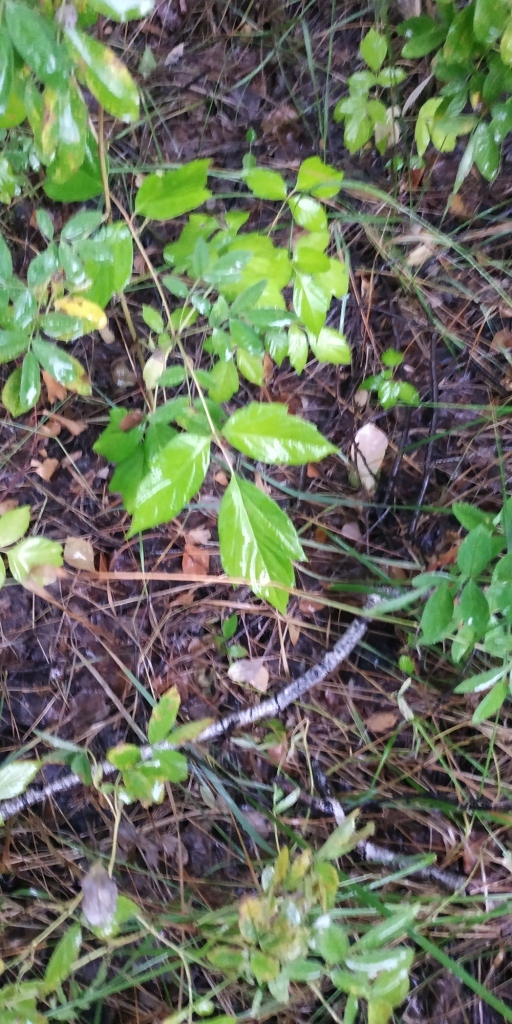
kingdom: Plantae
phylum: Tracheophyta
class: Magnoliopsida
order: Sapindales
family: Sapindaceae
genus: Acer
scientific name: Acer negundo
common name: Ashleaf maple
